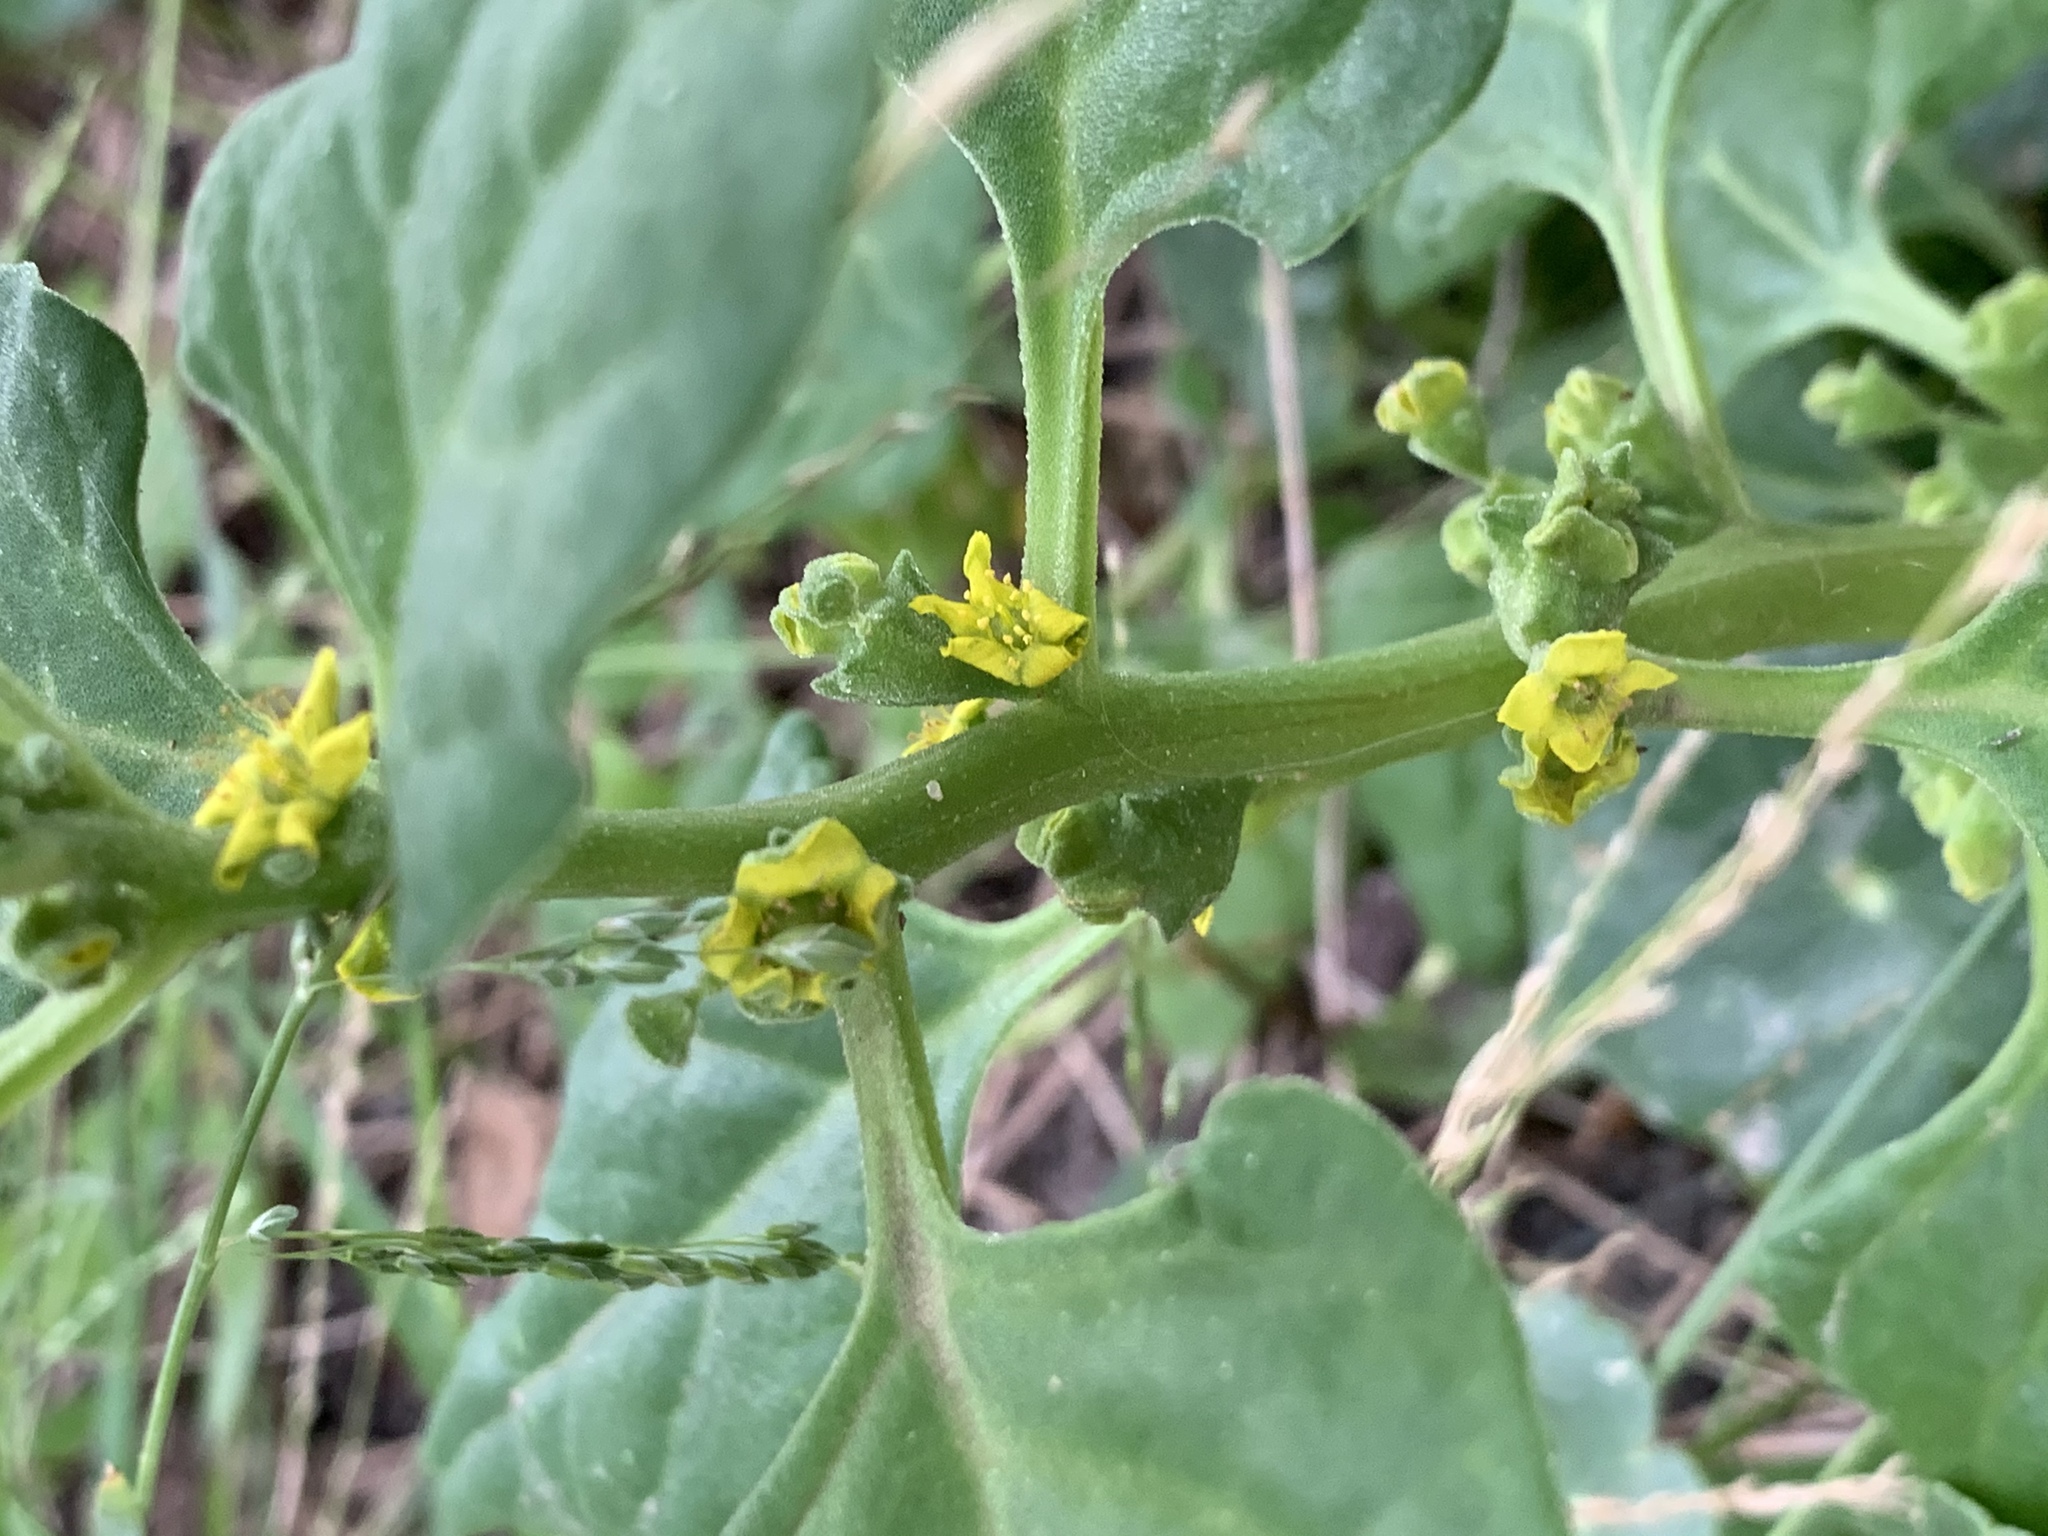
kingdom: Plantae
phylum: Tracheophyta
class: Magnoliopsida
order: Caryophyllales
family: Aizoaceae
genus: Tetragonia
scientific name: Tetragonia tetragonoides
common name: New zealand-spinach
